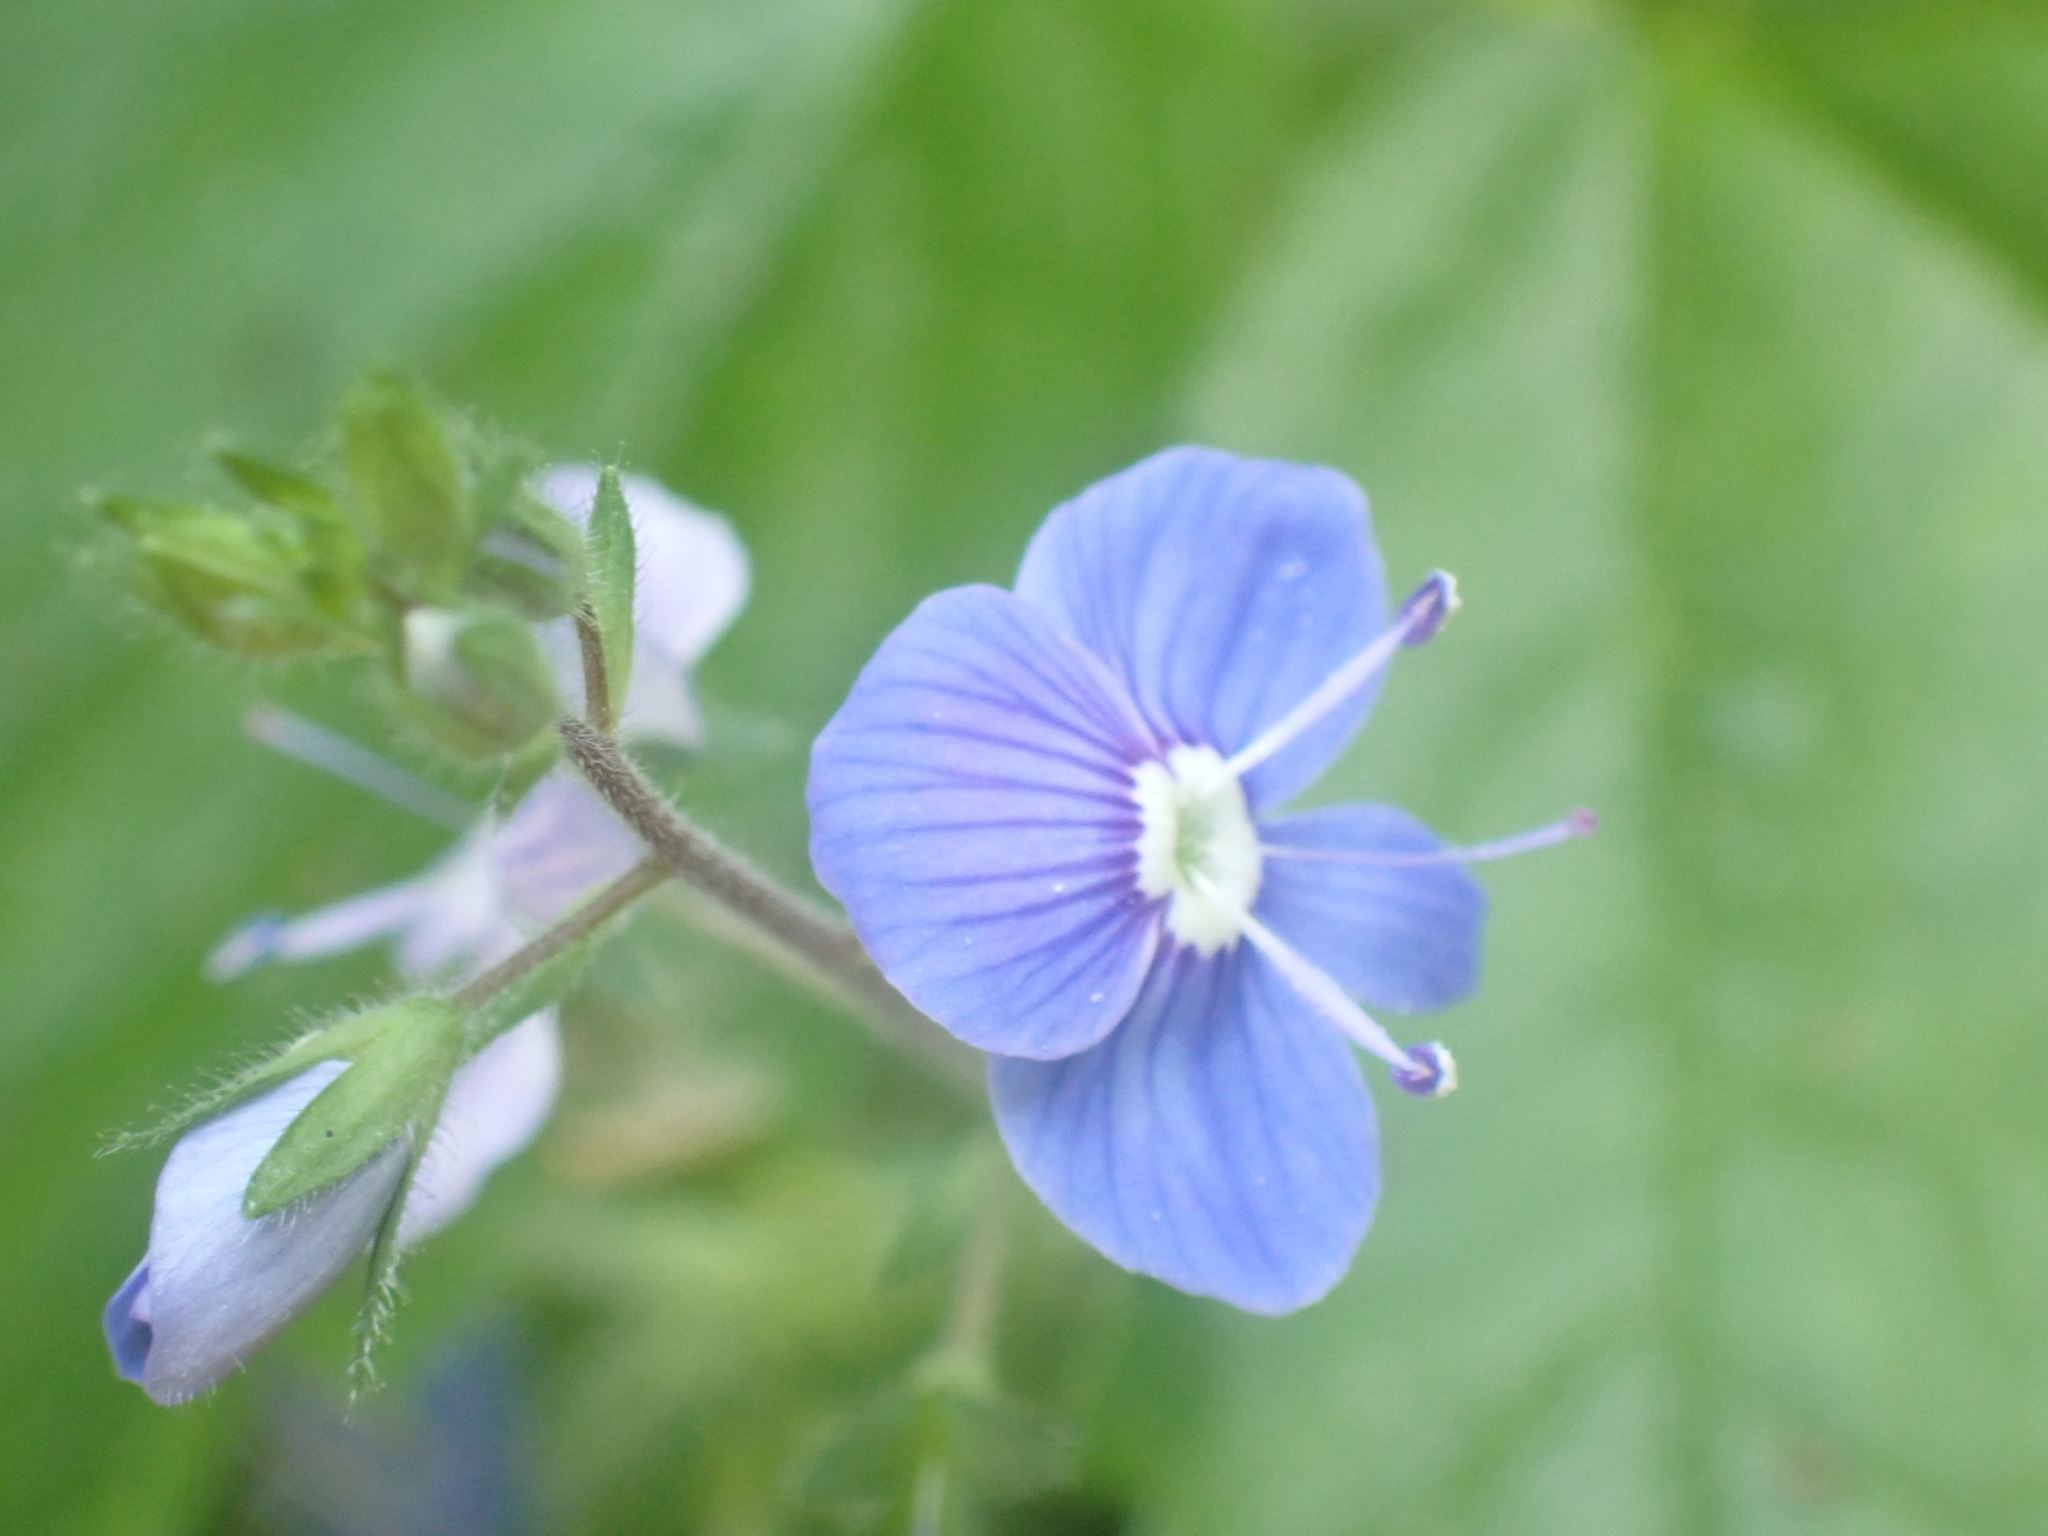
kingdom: Plantae
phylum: Tracheophyta
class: Magnoliopsida
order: Lamiales
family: Plantaginaceae
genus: Veronica
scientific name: Veronica chamaedrys
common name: Germander speedwell
